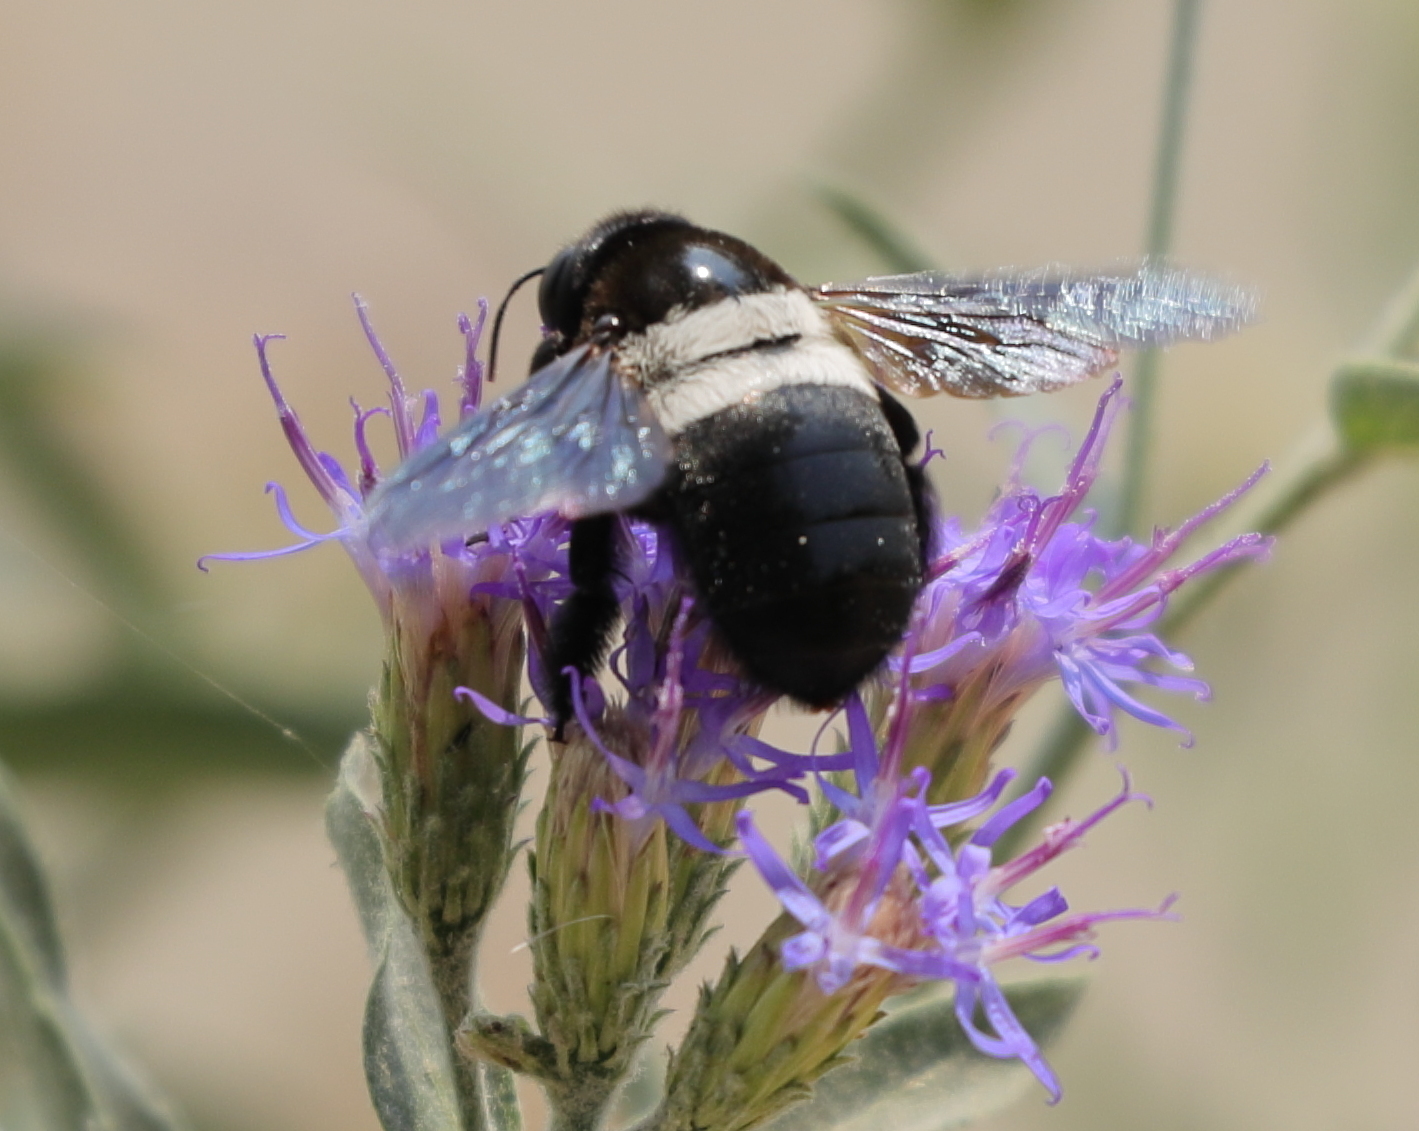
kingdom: Animalia
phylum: Arthropoda
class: Insecta
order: Hymenoptera
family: Apidae
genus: Xylocopa
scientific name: Xylocopa caffra
